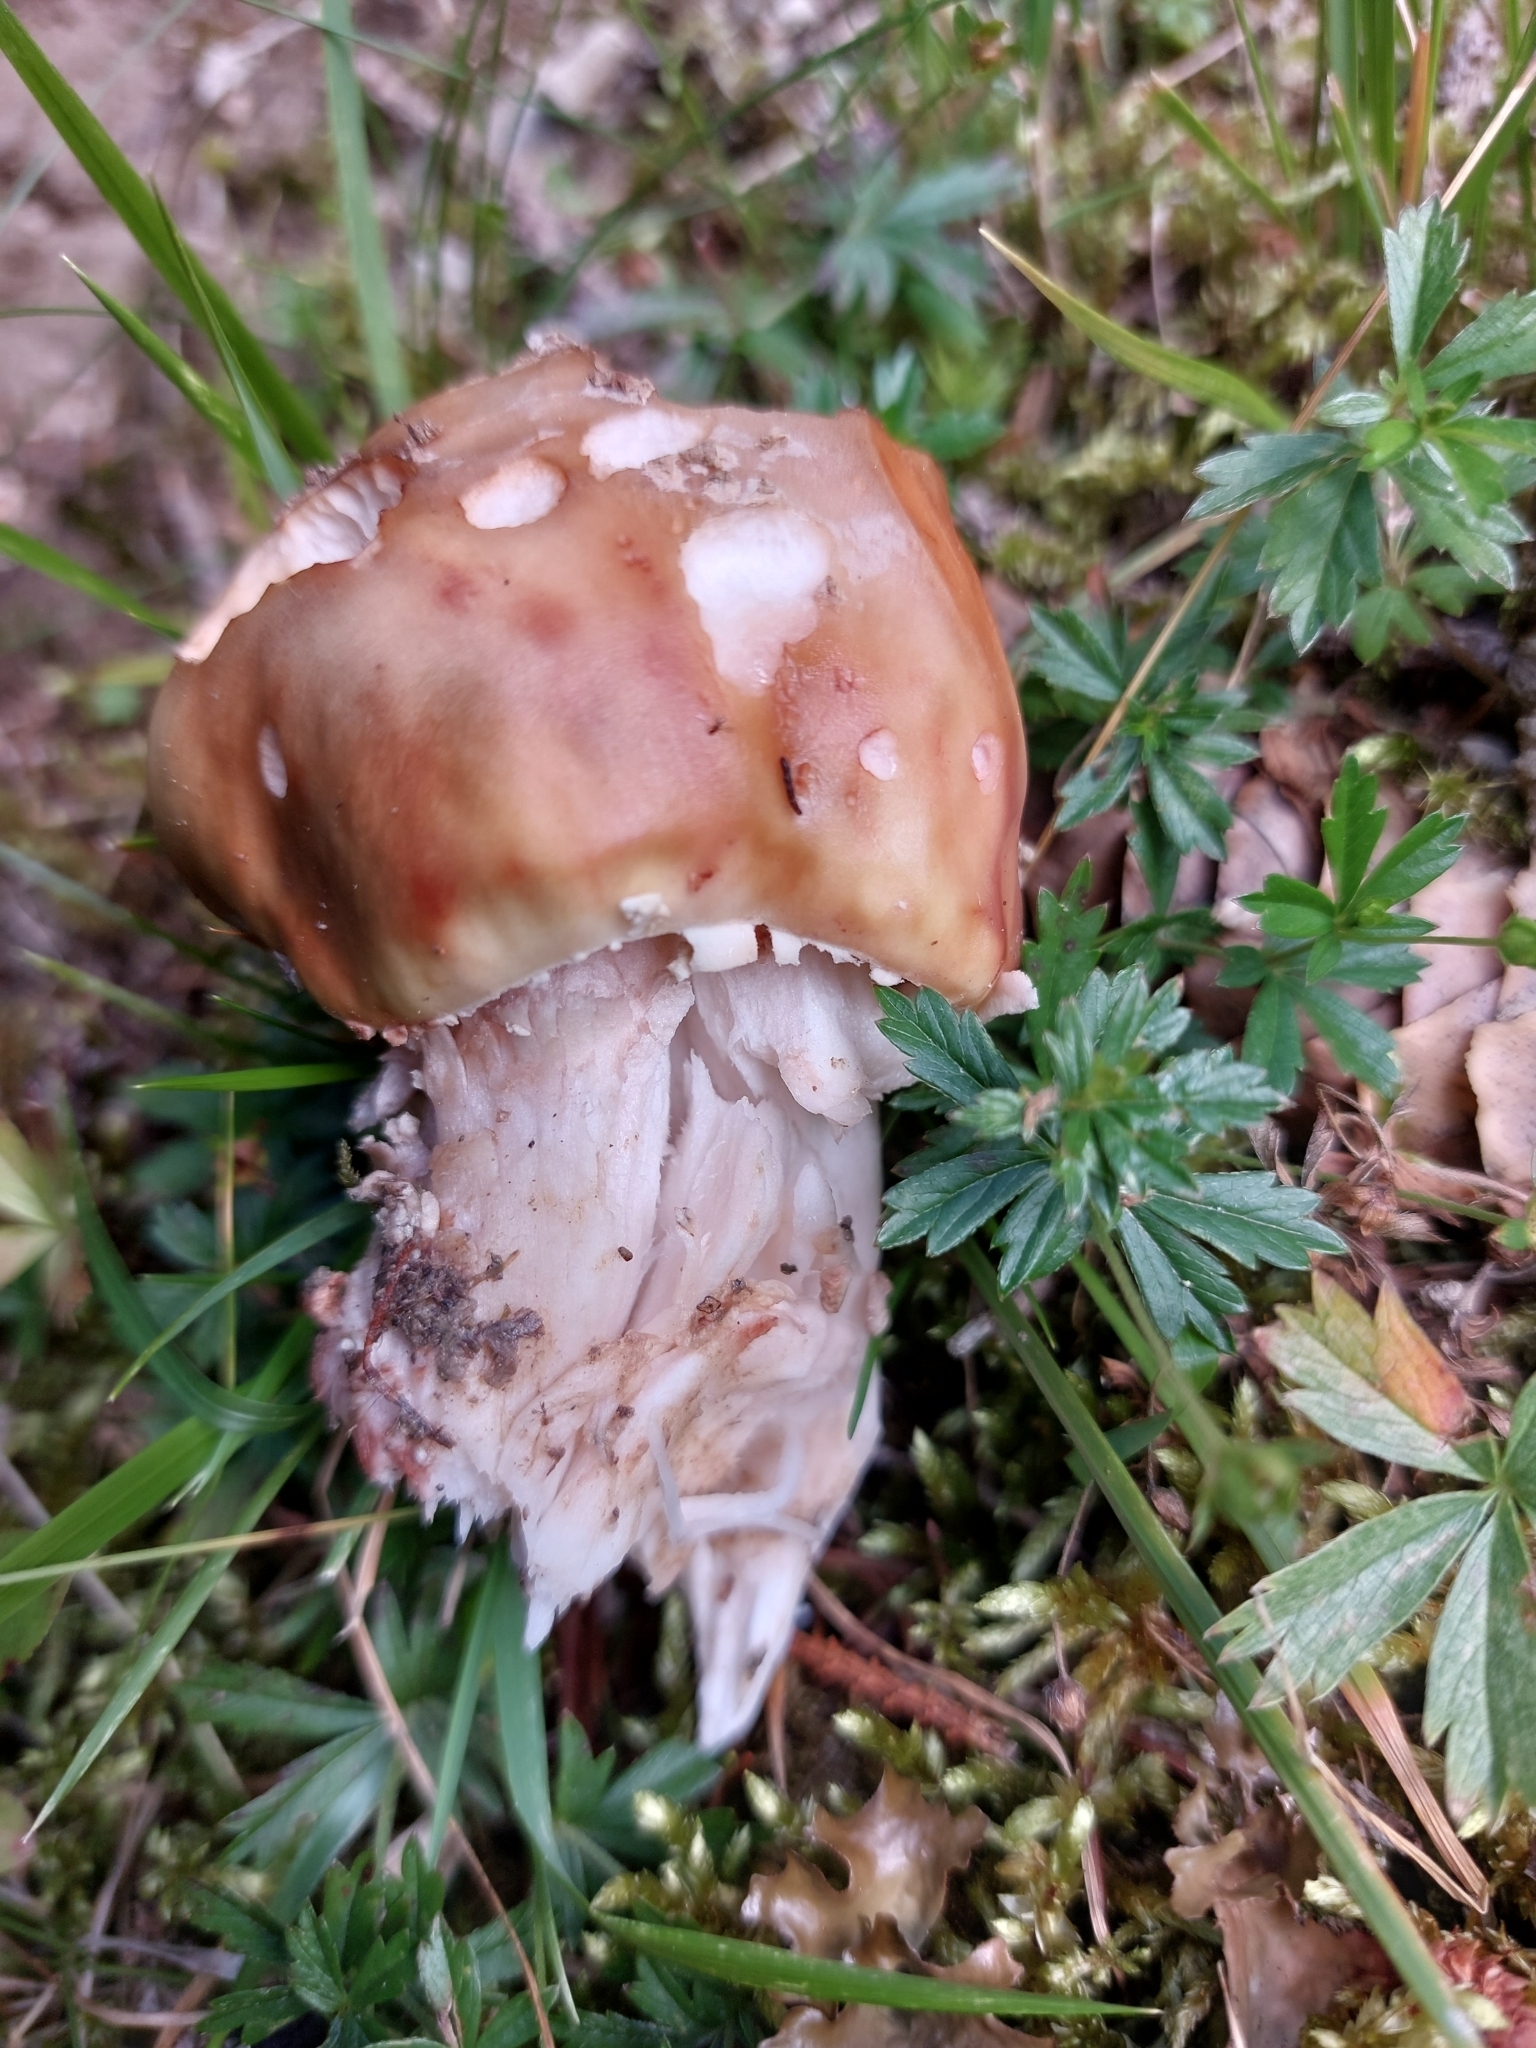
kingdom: Fungi
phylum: Basidiomycota
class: Agaricomycetes
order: Agaricales
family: Amanitaceae
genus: Amanita
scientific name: Amanita rubescens
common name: Blusher
